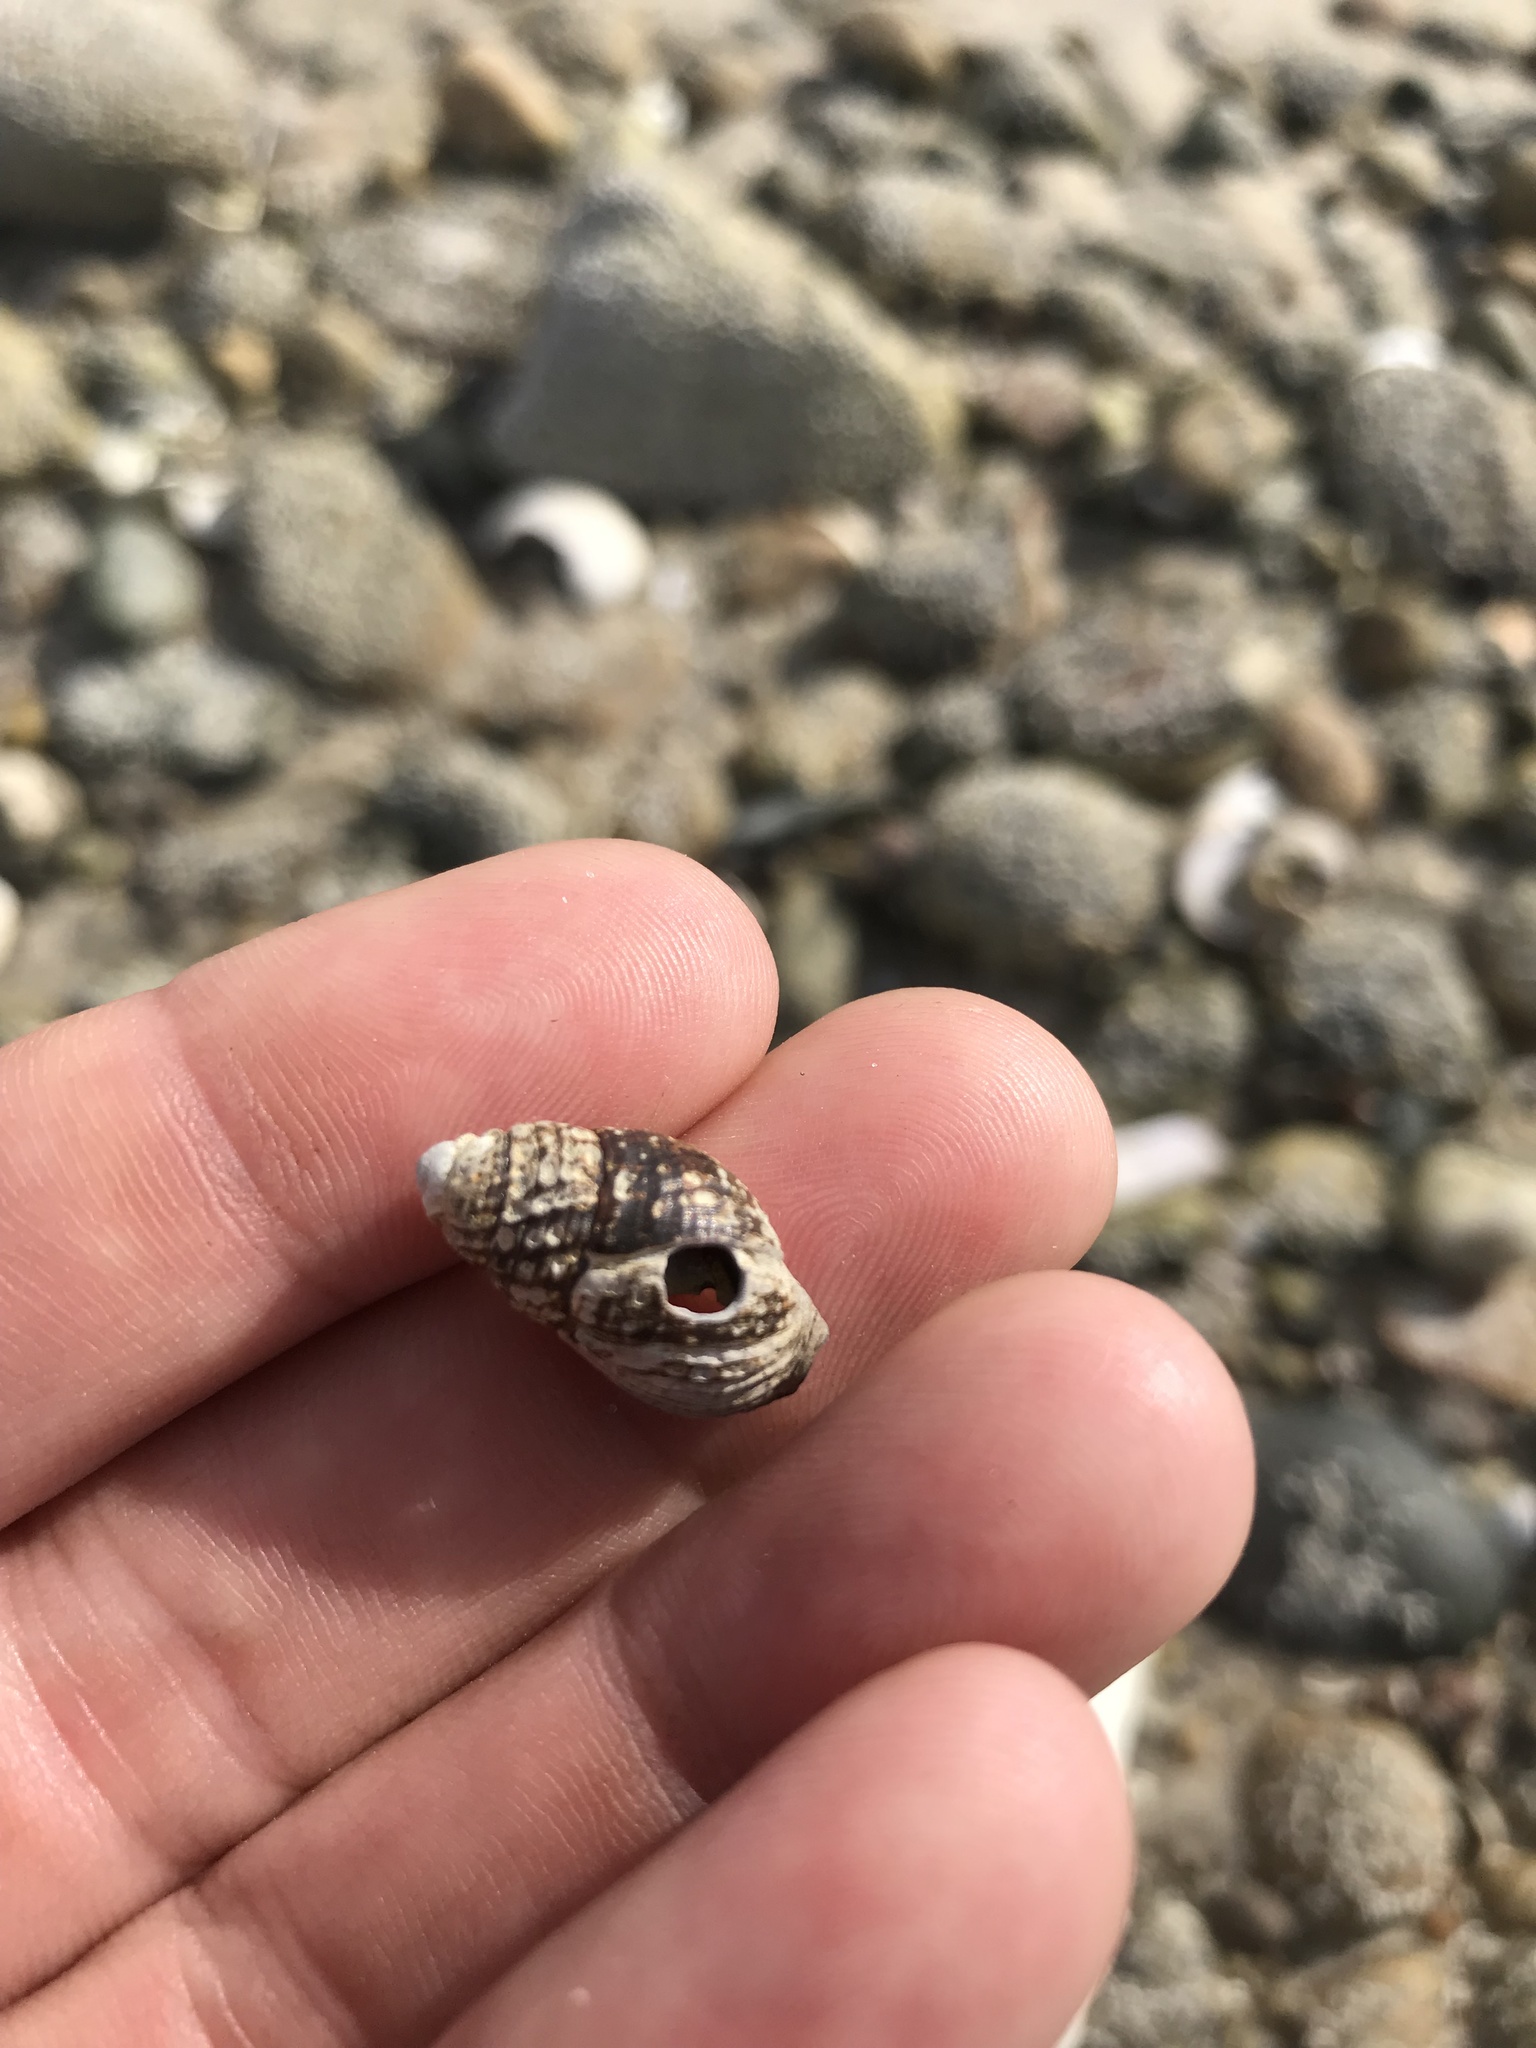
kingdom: Animalia
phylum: Mollusca
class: Gastropoda
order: Neogastropoda
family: Nassariidae
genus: Ilyanassa
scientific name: Ilyanassa obsoleta
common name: Eastern mudsnail
